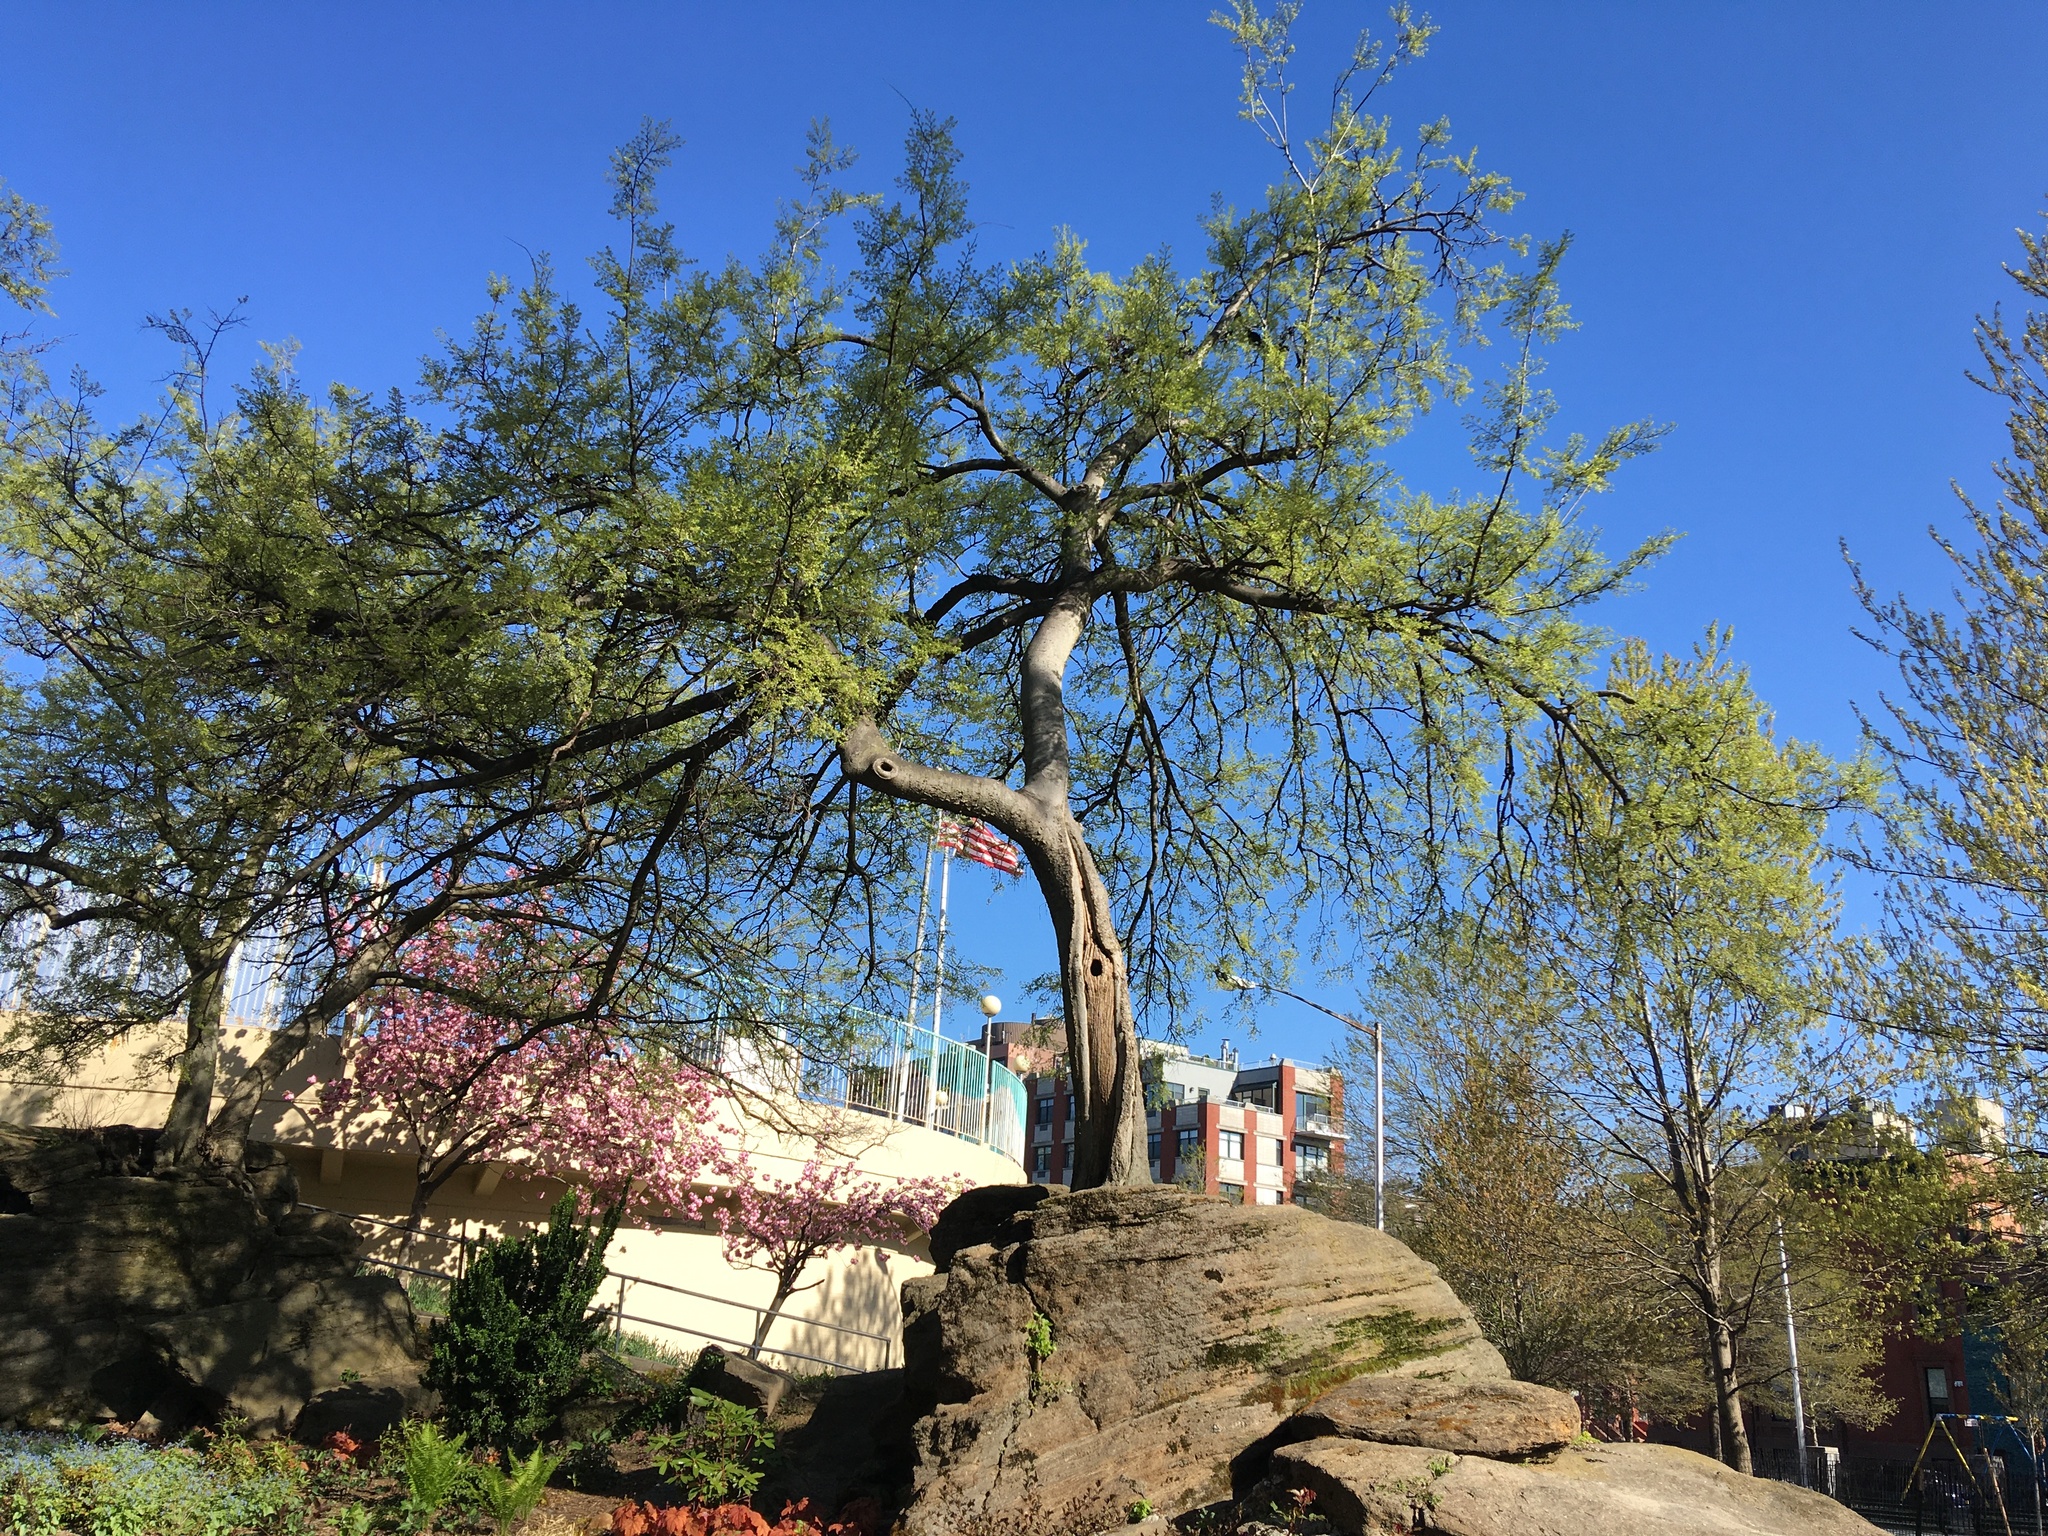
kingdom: Plantae
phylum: Tracheophyta
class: Magnoliopsida
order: Rosales
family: Cannabaceae
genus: Celtis
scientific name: Celtis occidentalis
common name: Common hackberry
